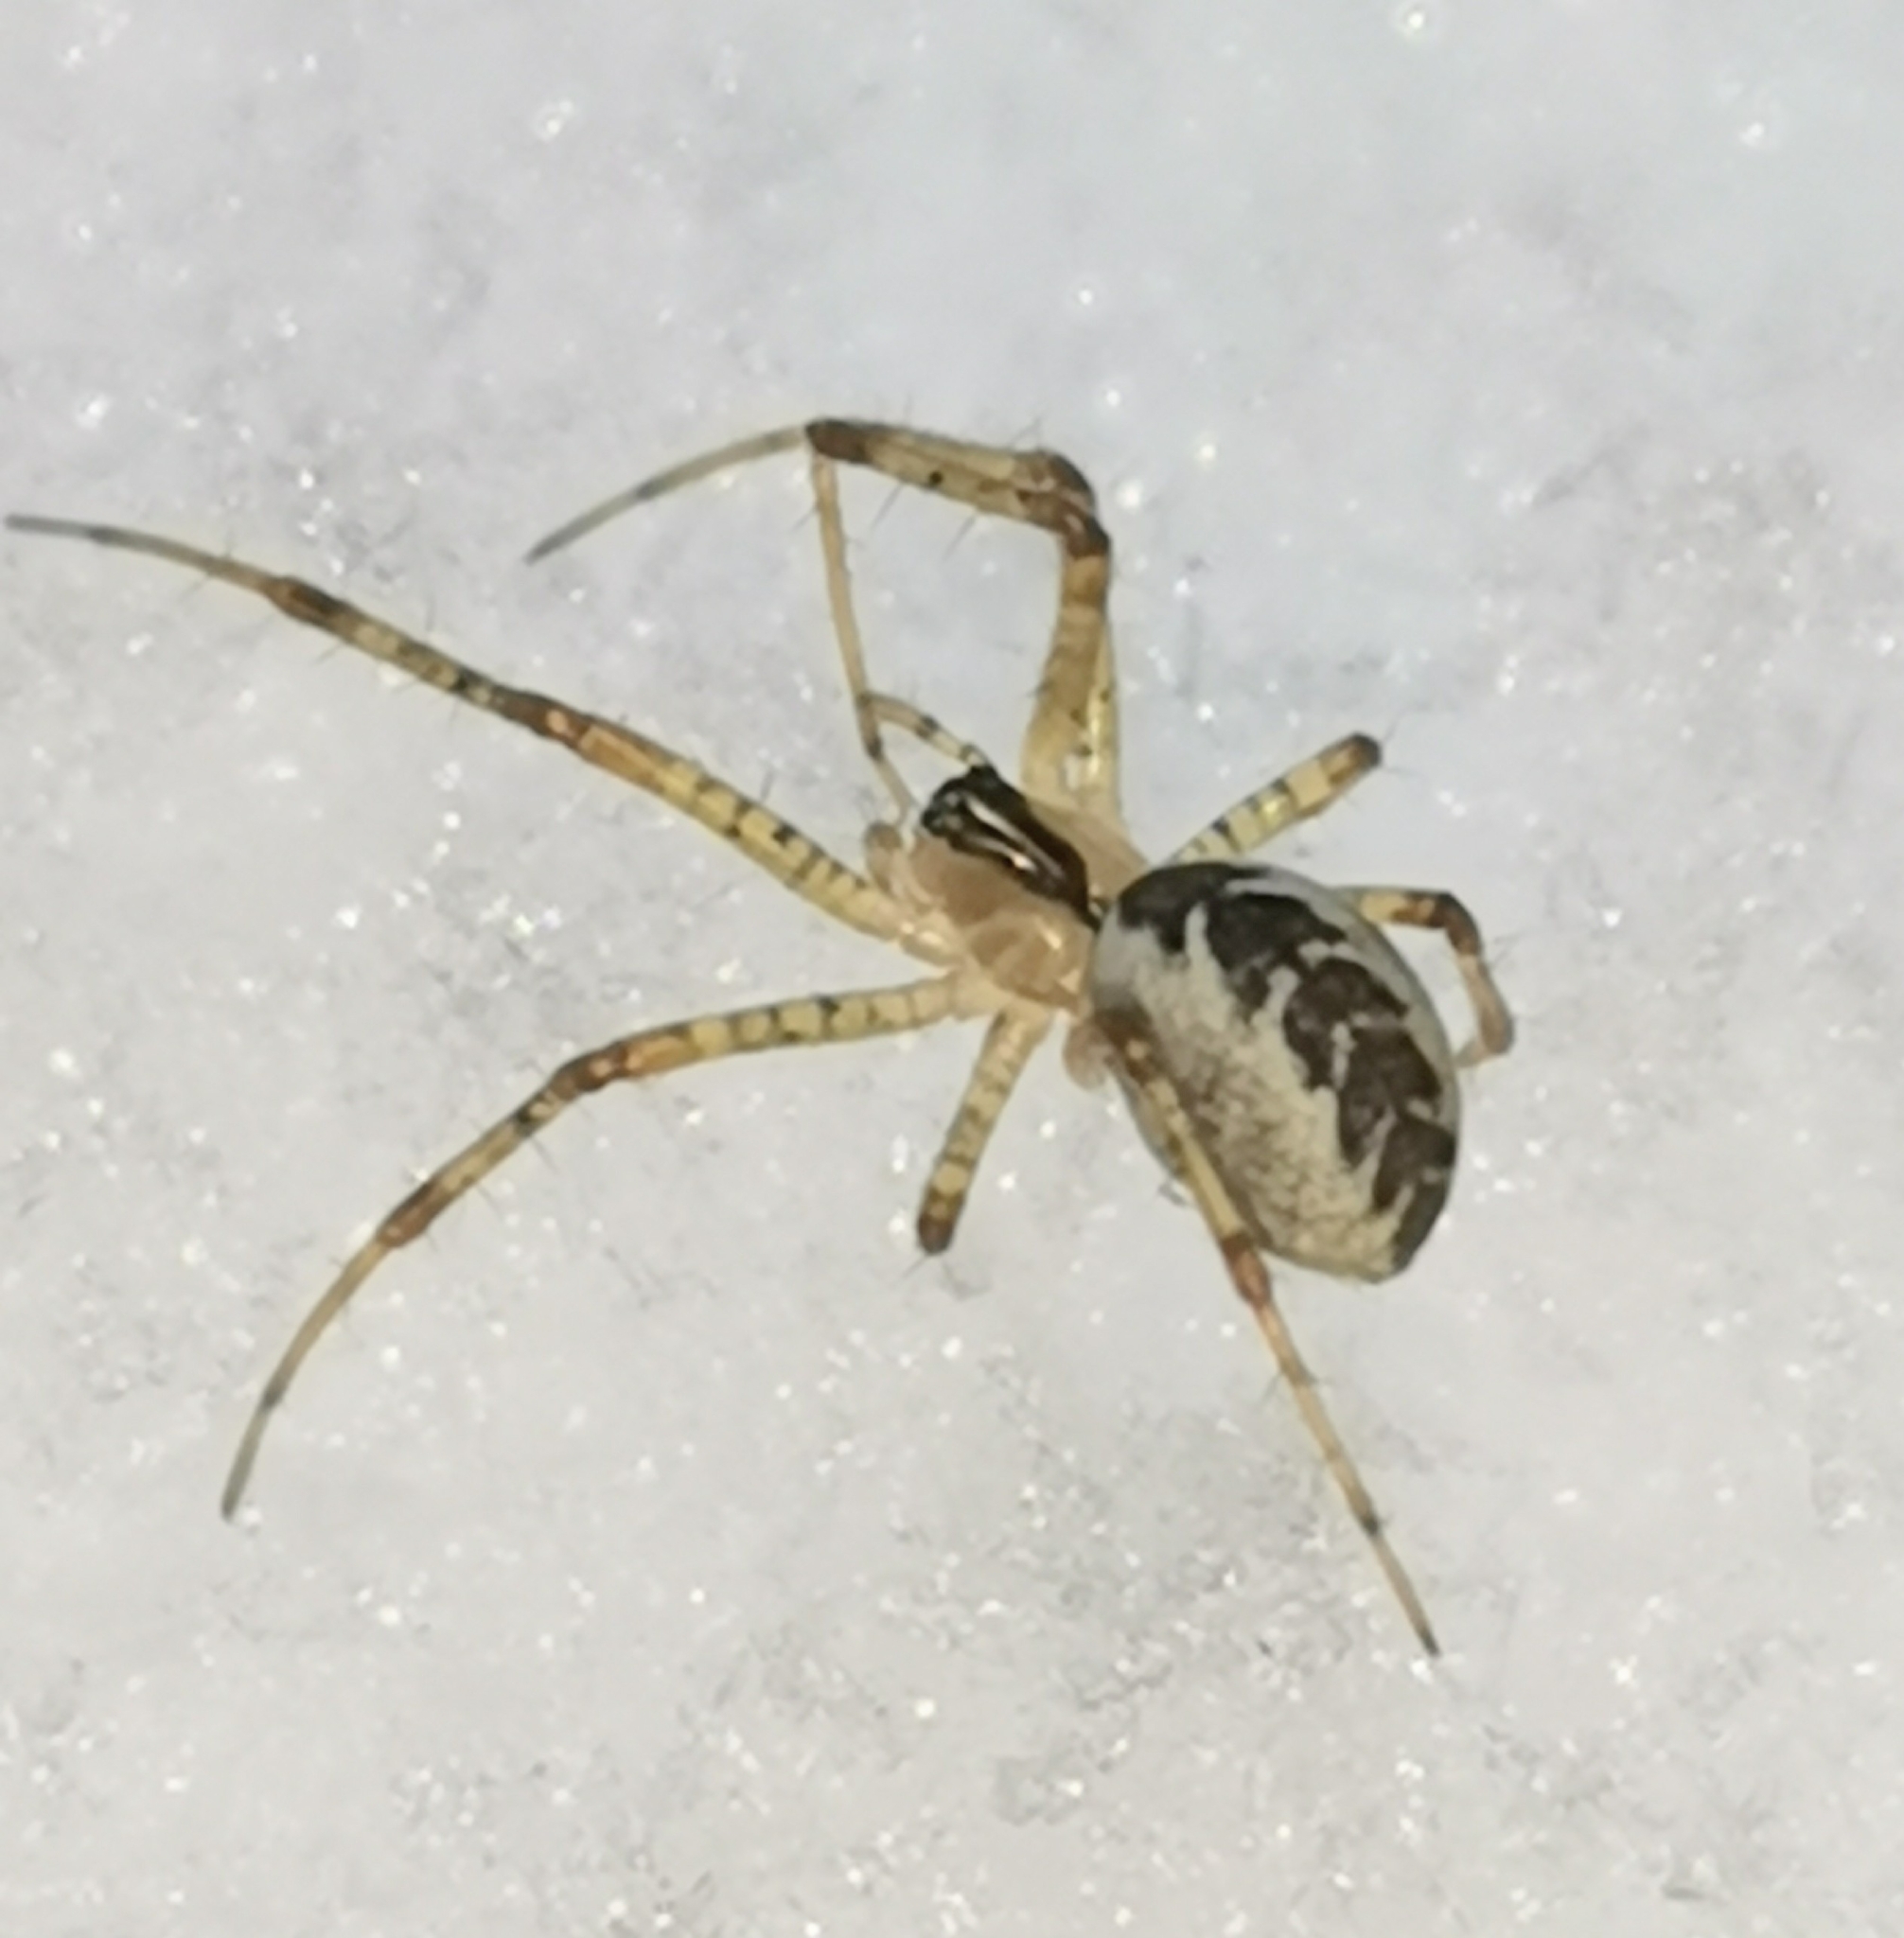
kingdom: Animalia
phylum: Arthropoda
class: Arachnida
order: Araneae
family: Linyphiidae
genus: Pityohyphantes
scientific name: Pityohyphantes phrygianus
